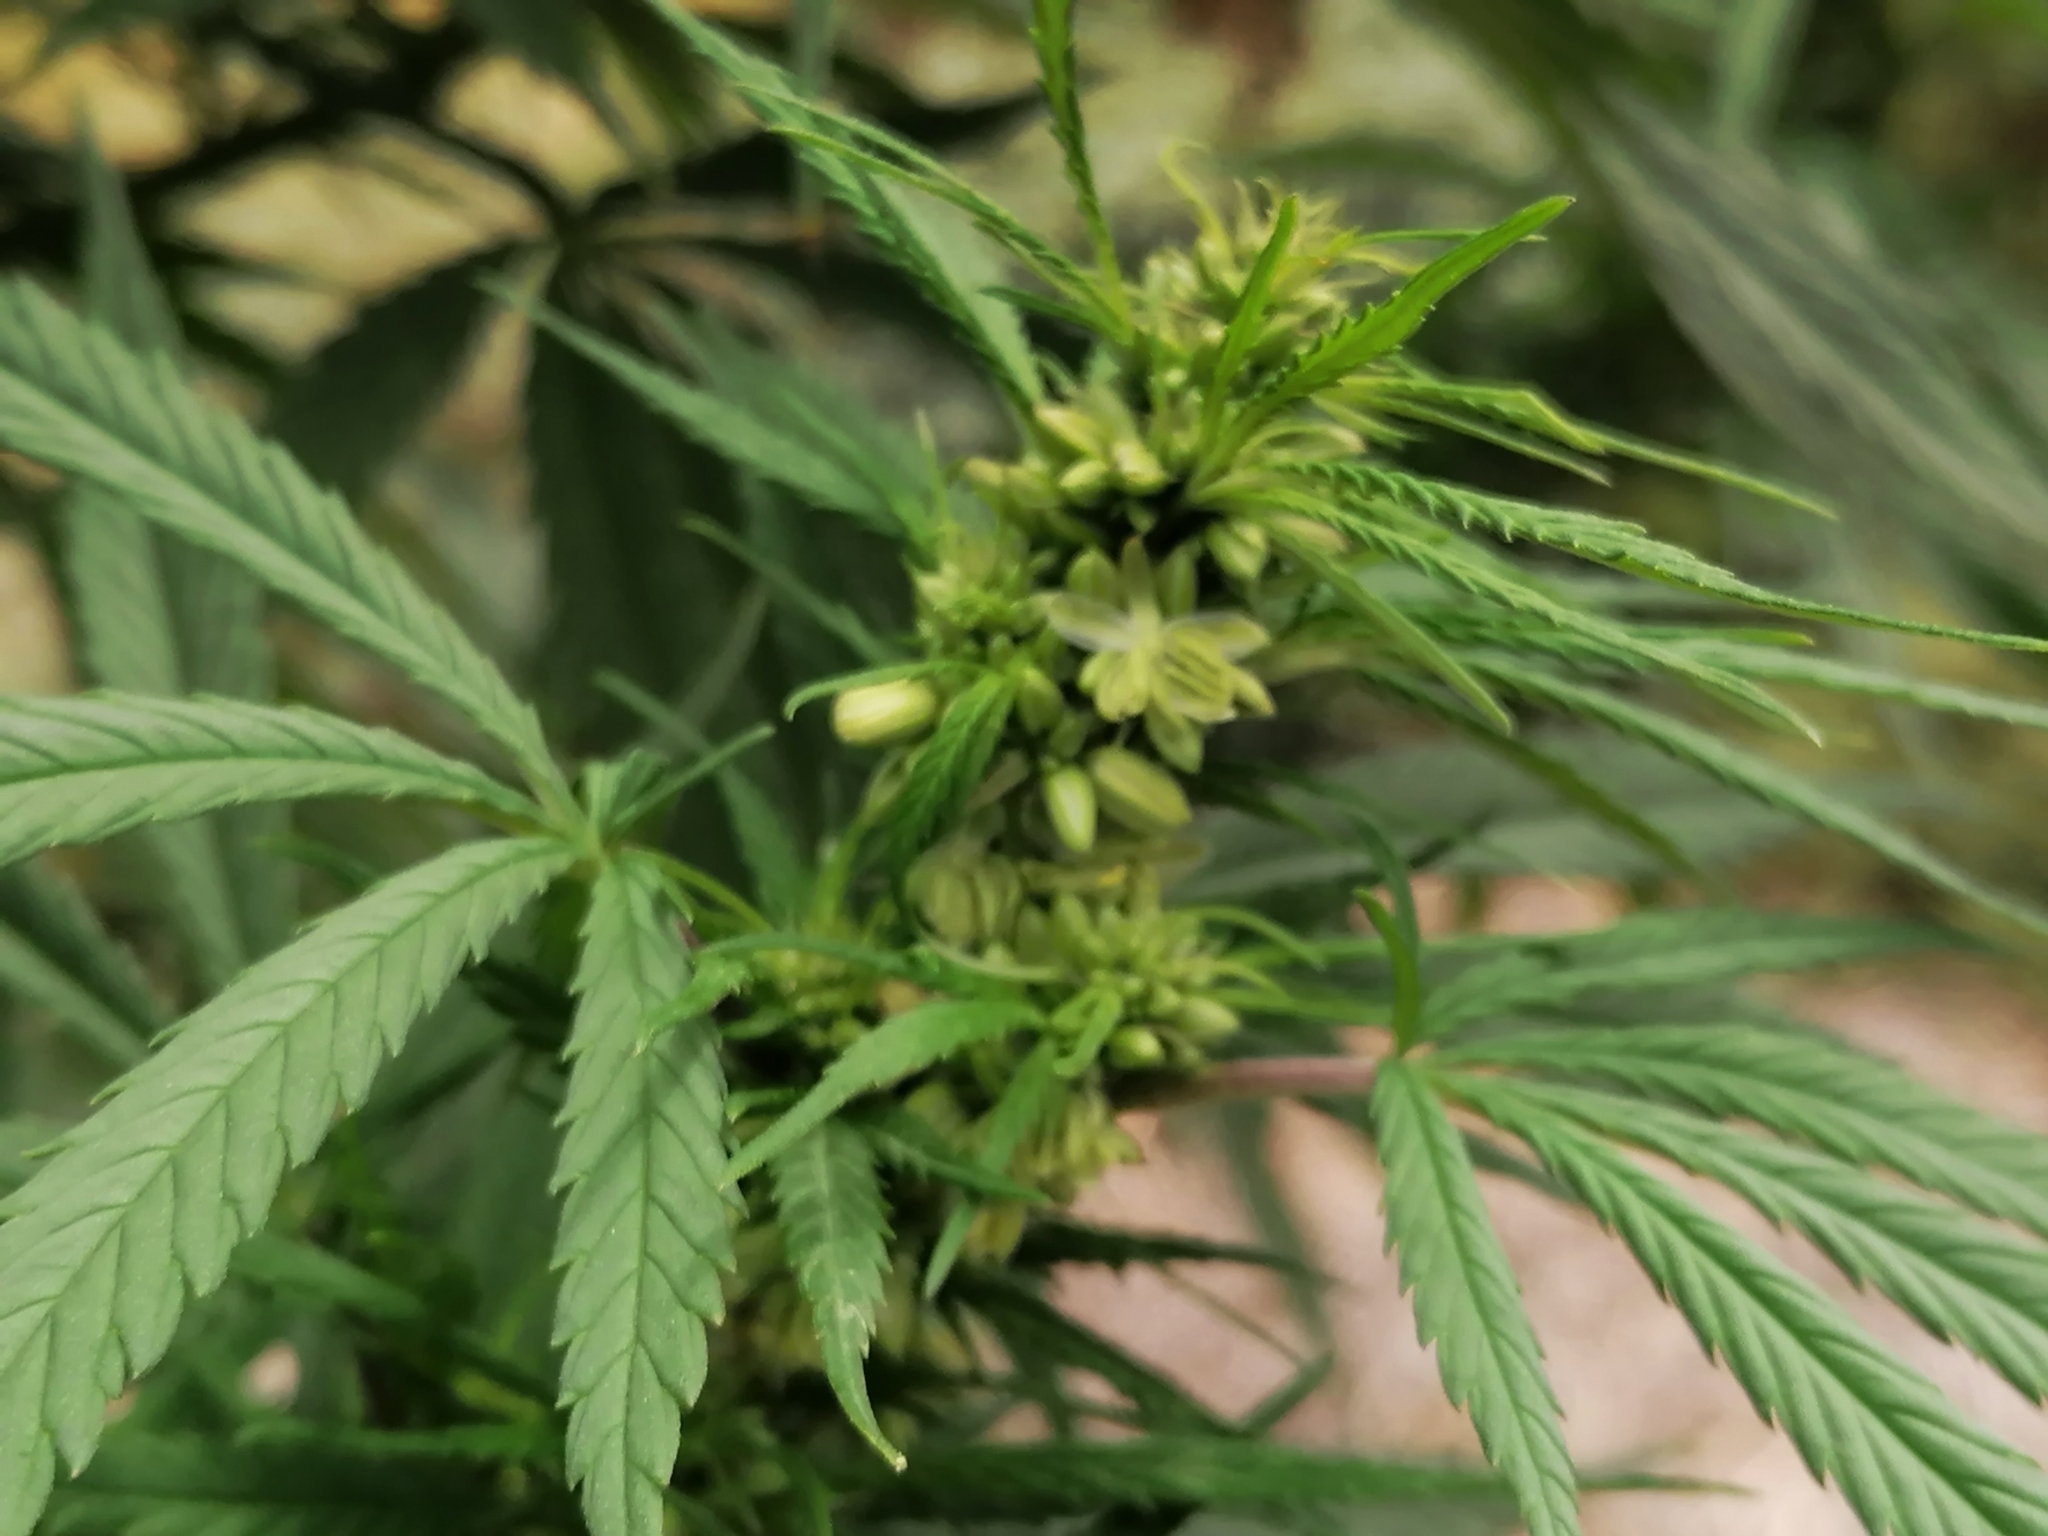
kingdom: Plantae
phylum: Tracheophyta
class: Magnoliopsida
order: Rosales
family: Cannabaceae
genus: Cannabis
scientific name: Cannabis sativa
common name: Hemp
